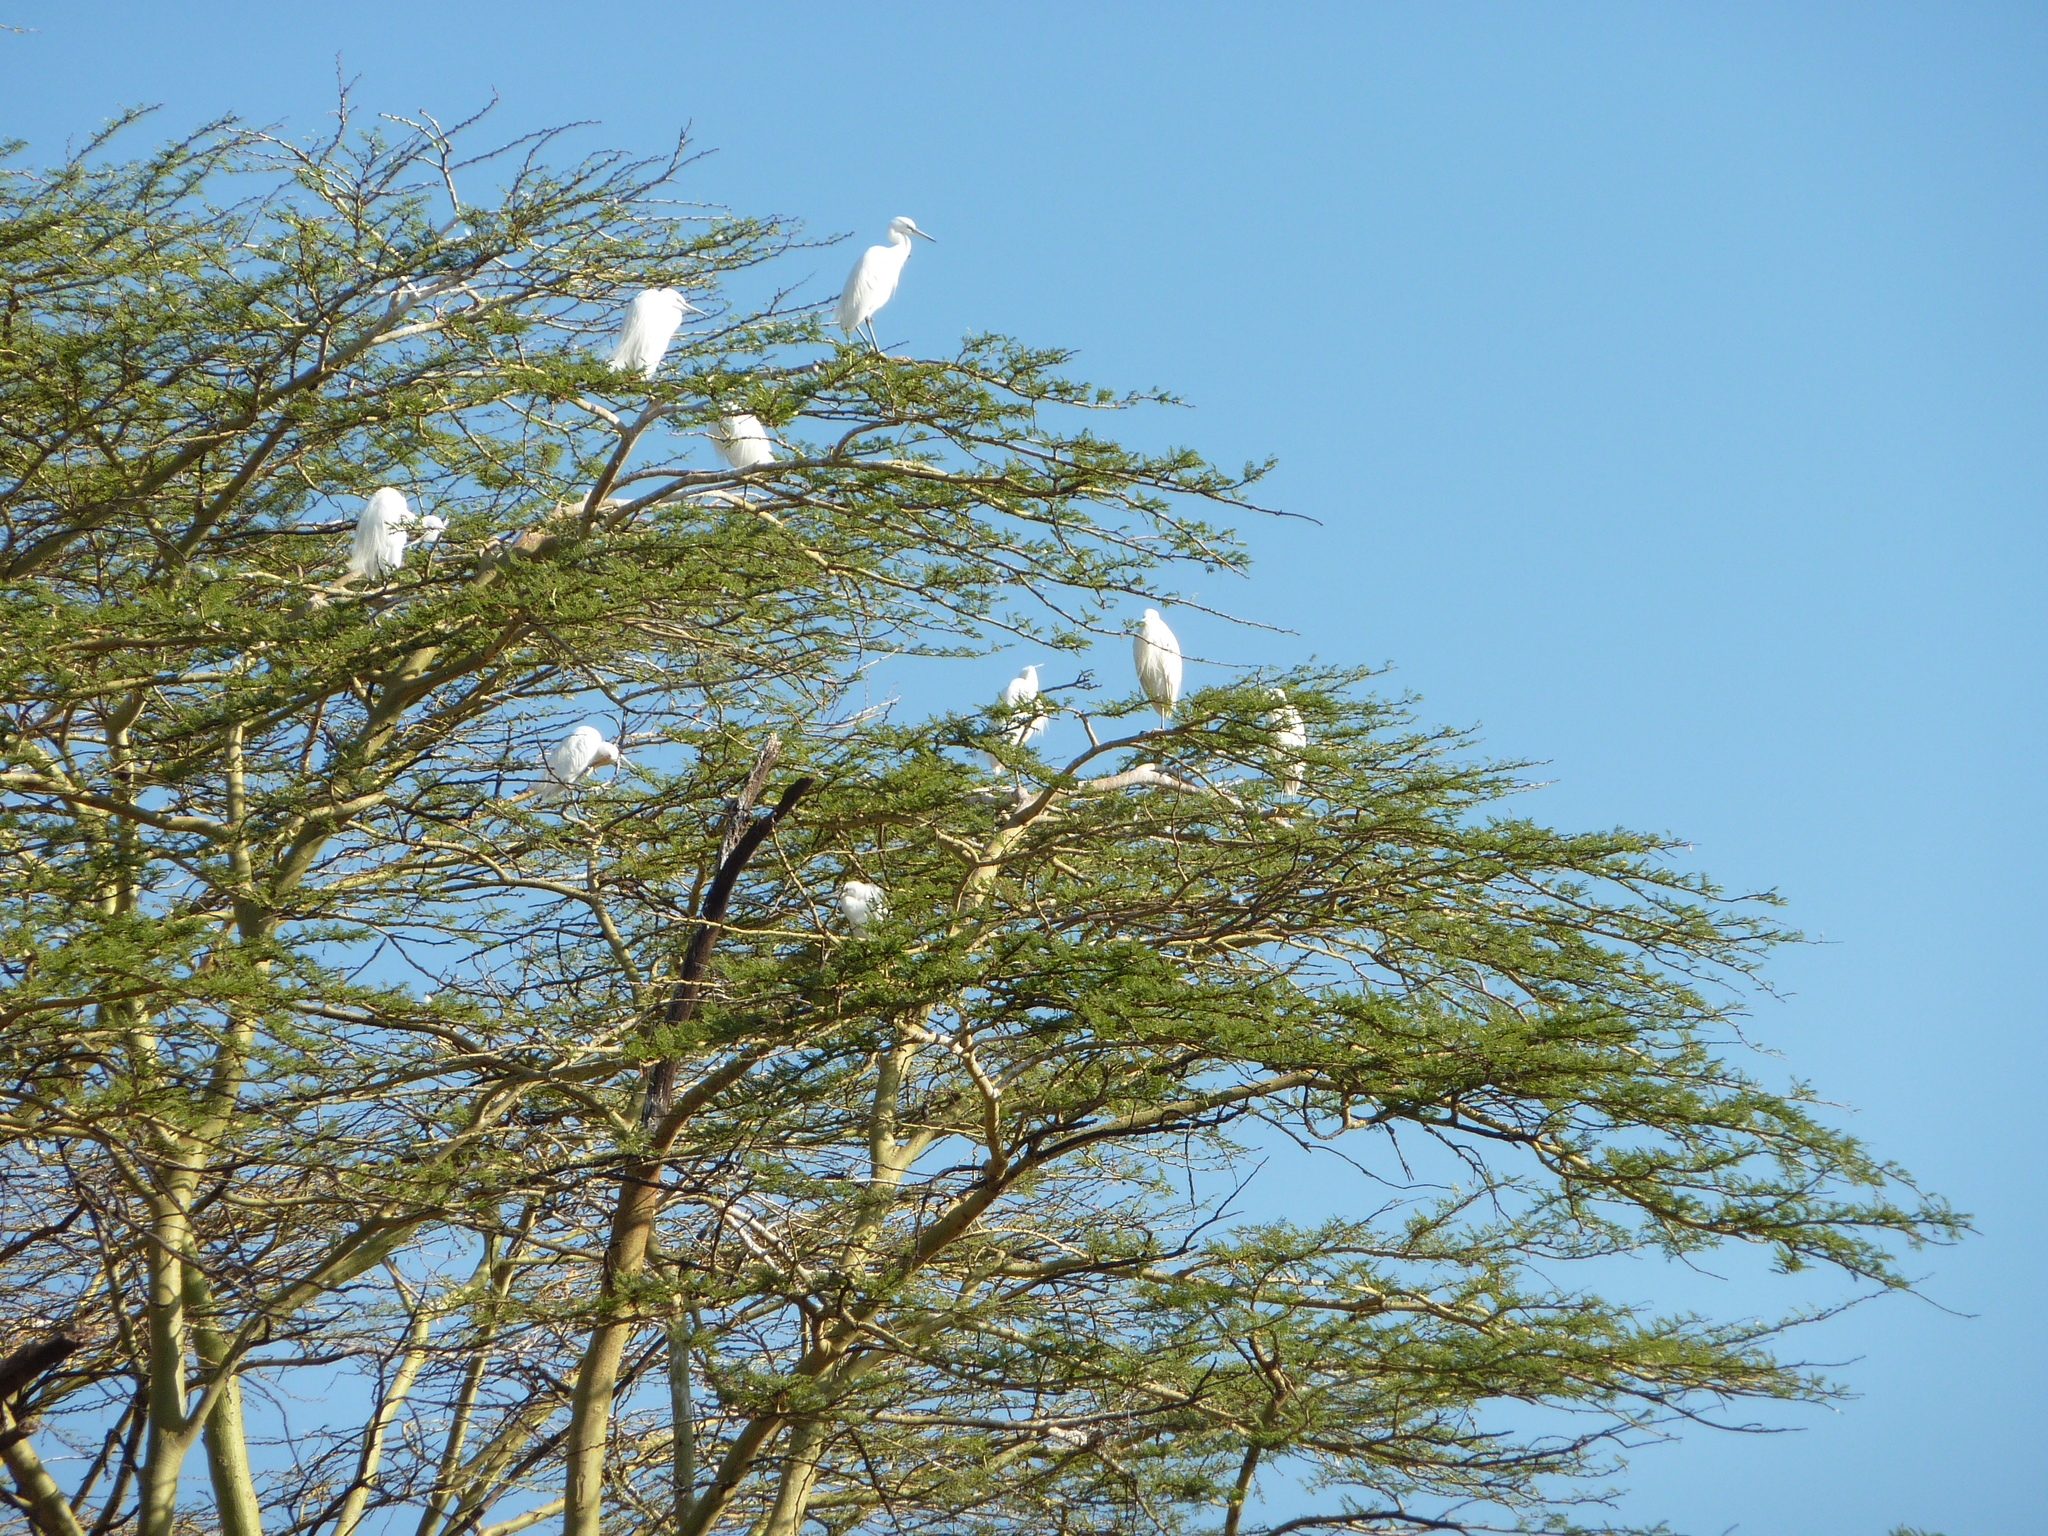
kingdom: Animalia
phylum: Chordata
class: Aves
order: Pelecaniformes
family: Ardeidae
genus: Egretta
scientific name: Egretta garzetta
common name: Little egret
